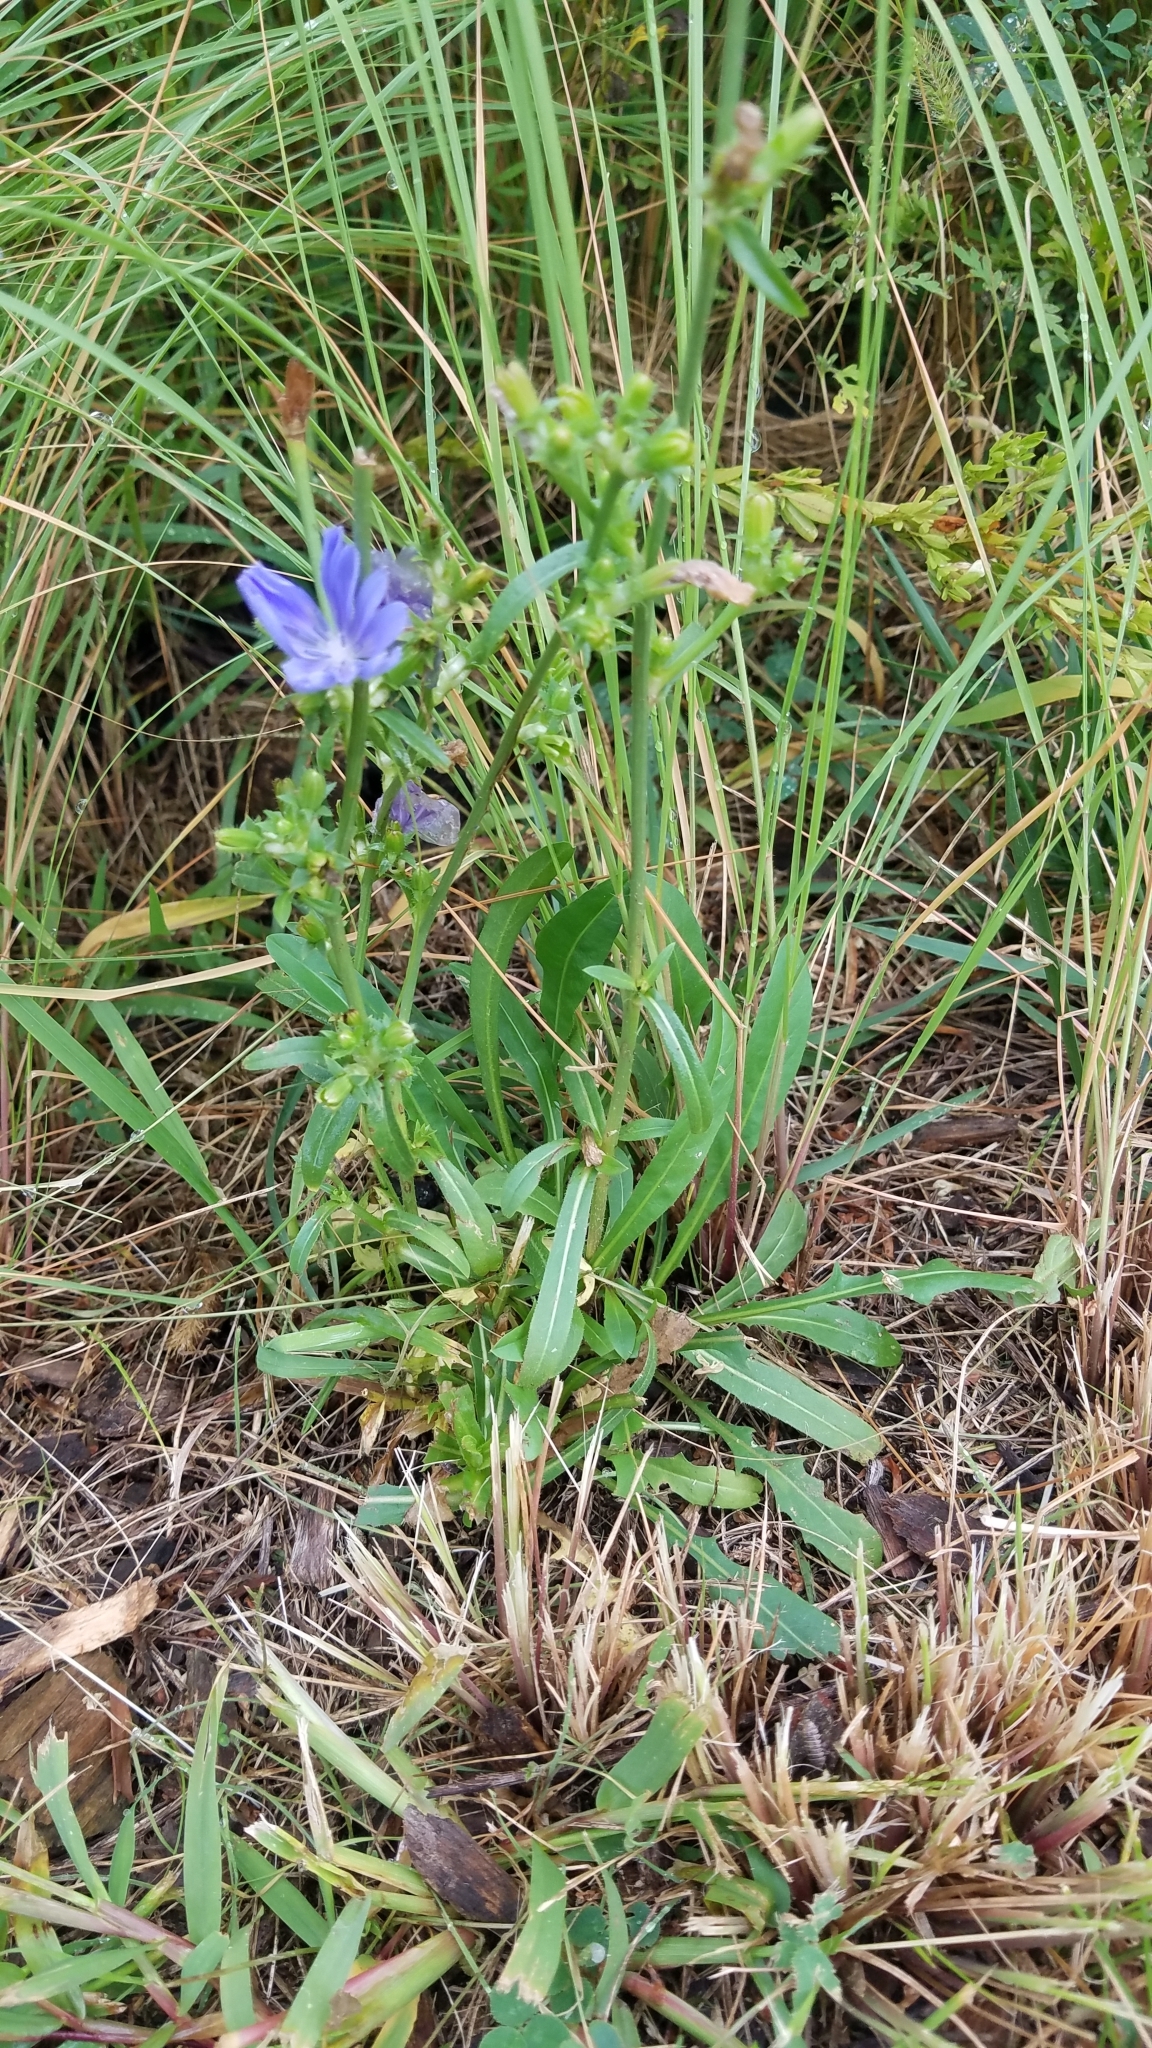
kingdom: Plantae
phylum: Tracheophyta
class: Magnoliopsida
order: Asterales
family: Asteraceae
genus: Cichorium
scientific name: Cichorium intybus
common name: Chicory
